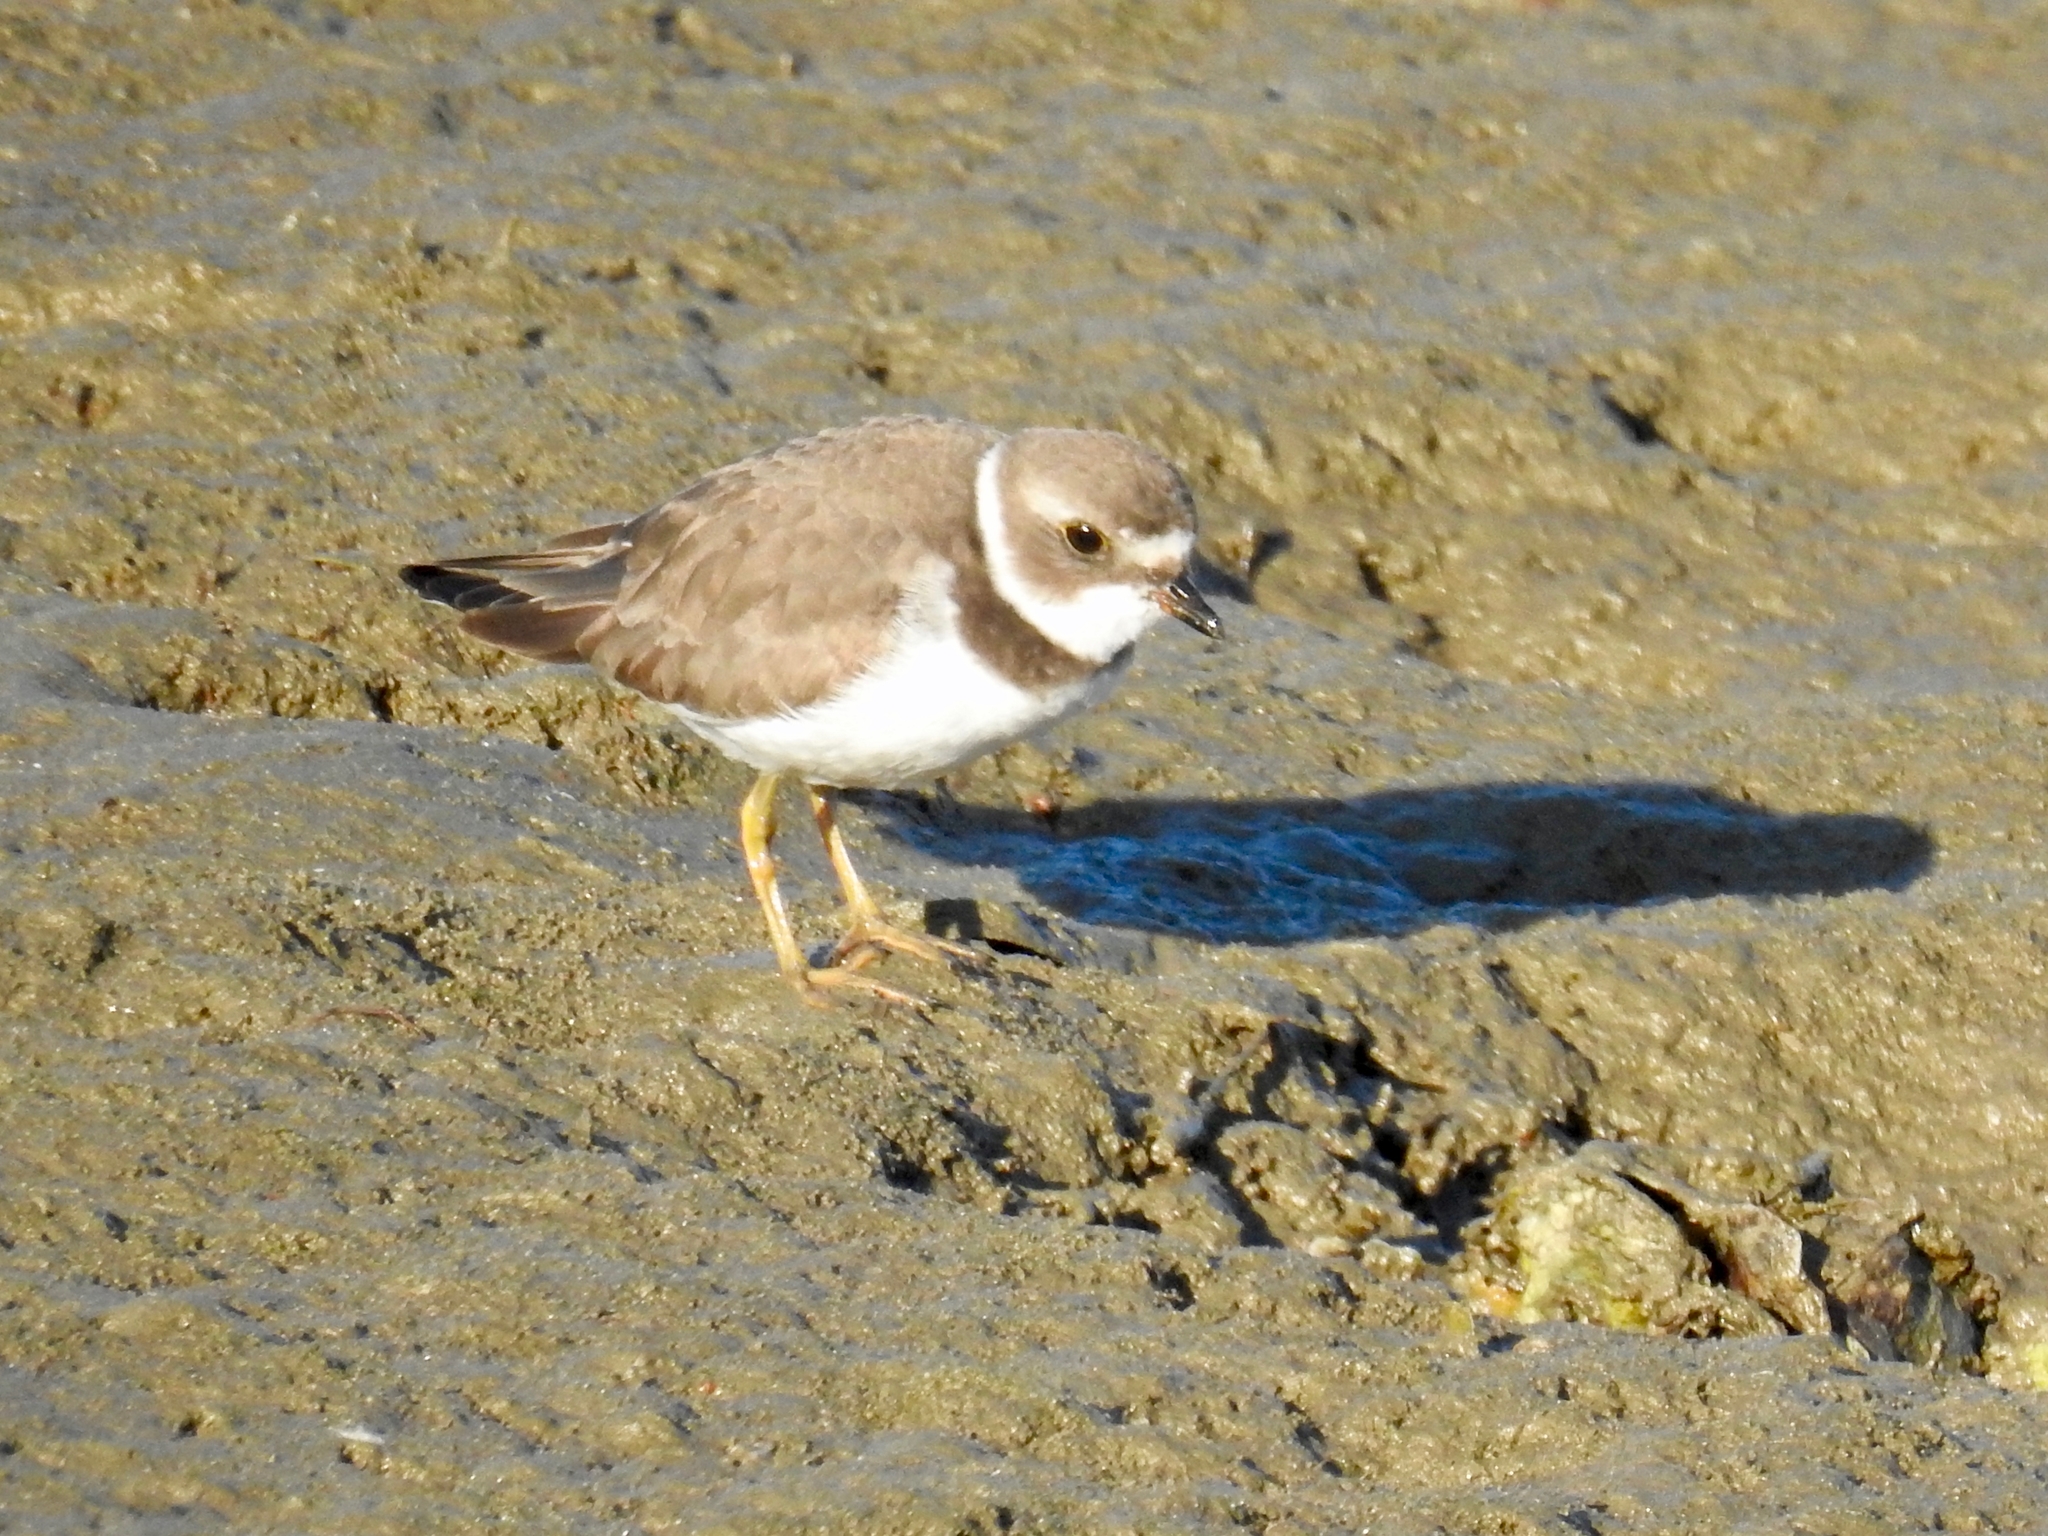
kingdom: Animalia
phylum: Chordata
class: Aves
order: Charadriiformes
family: Charadriidae
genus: Charadrius
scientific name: Charadrius semipalmatus
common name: Semipalmated plover
